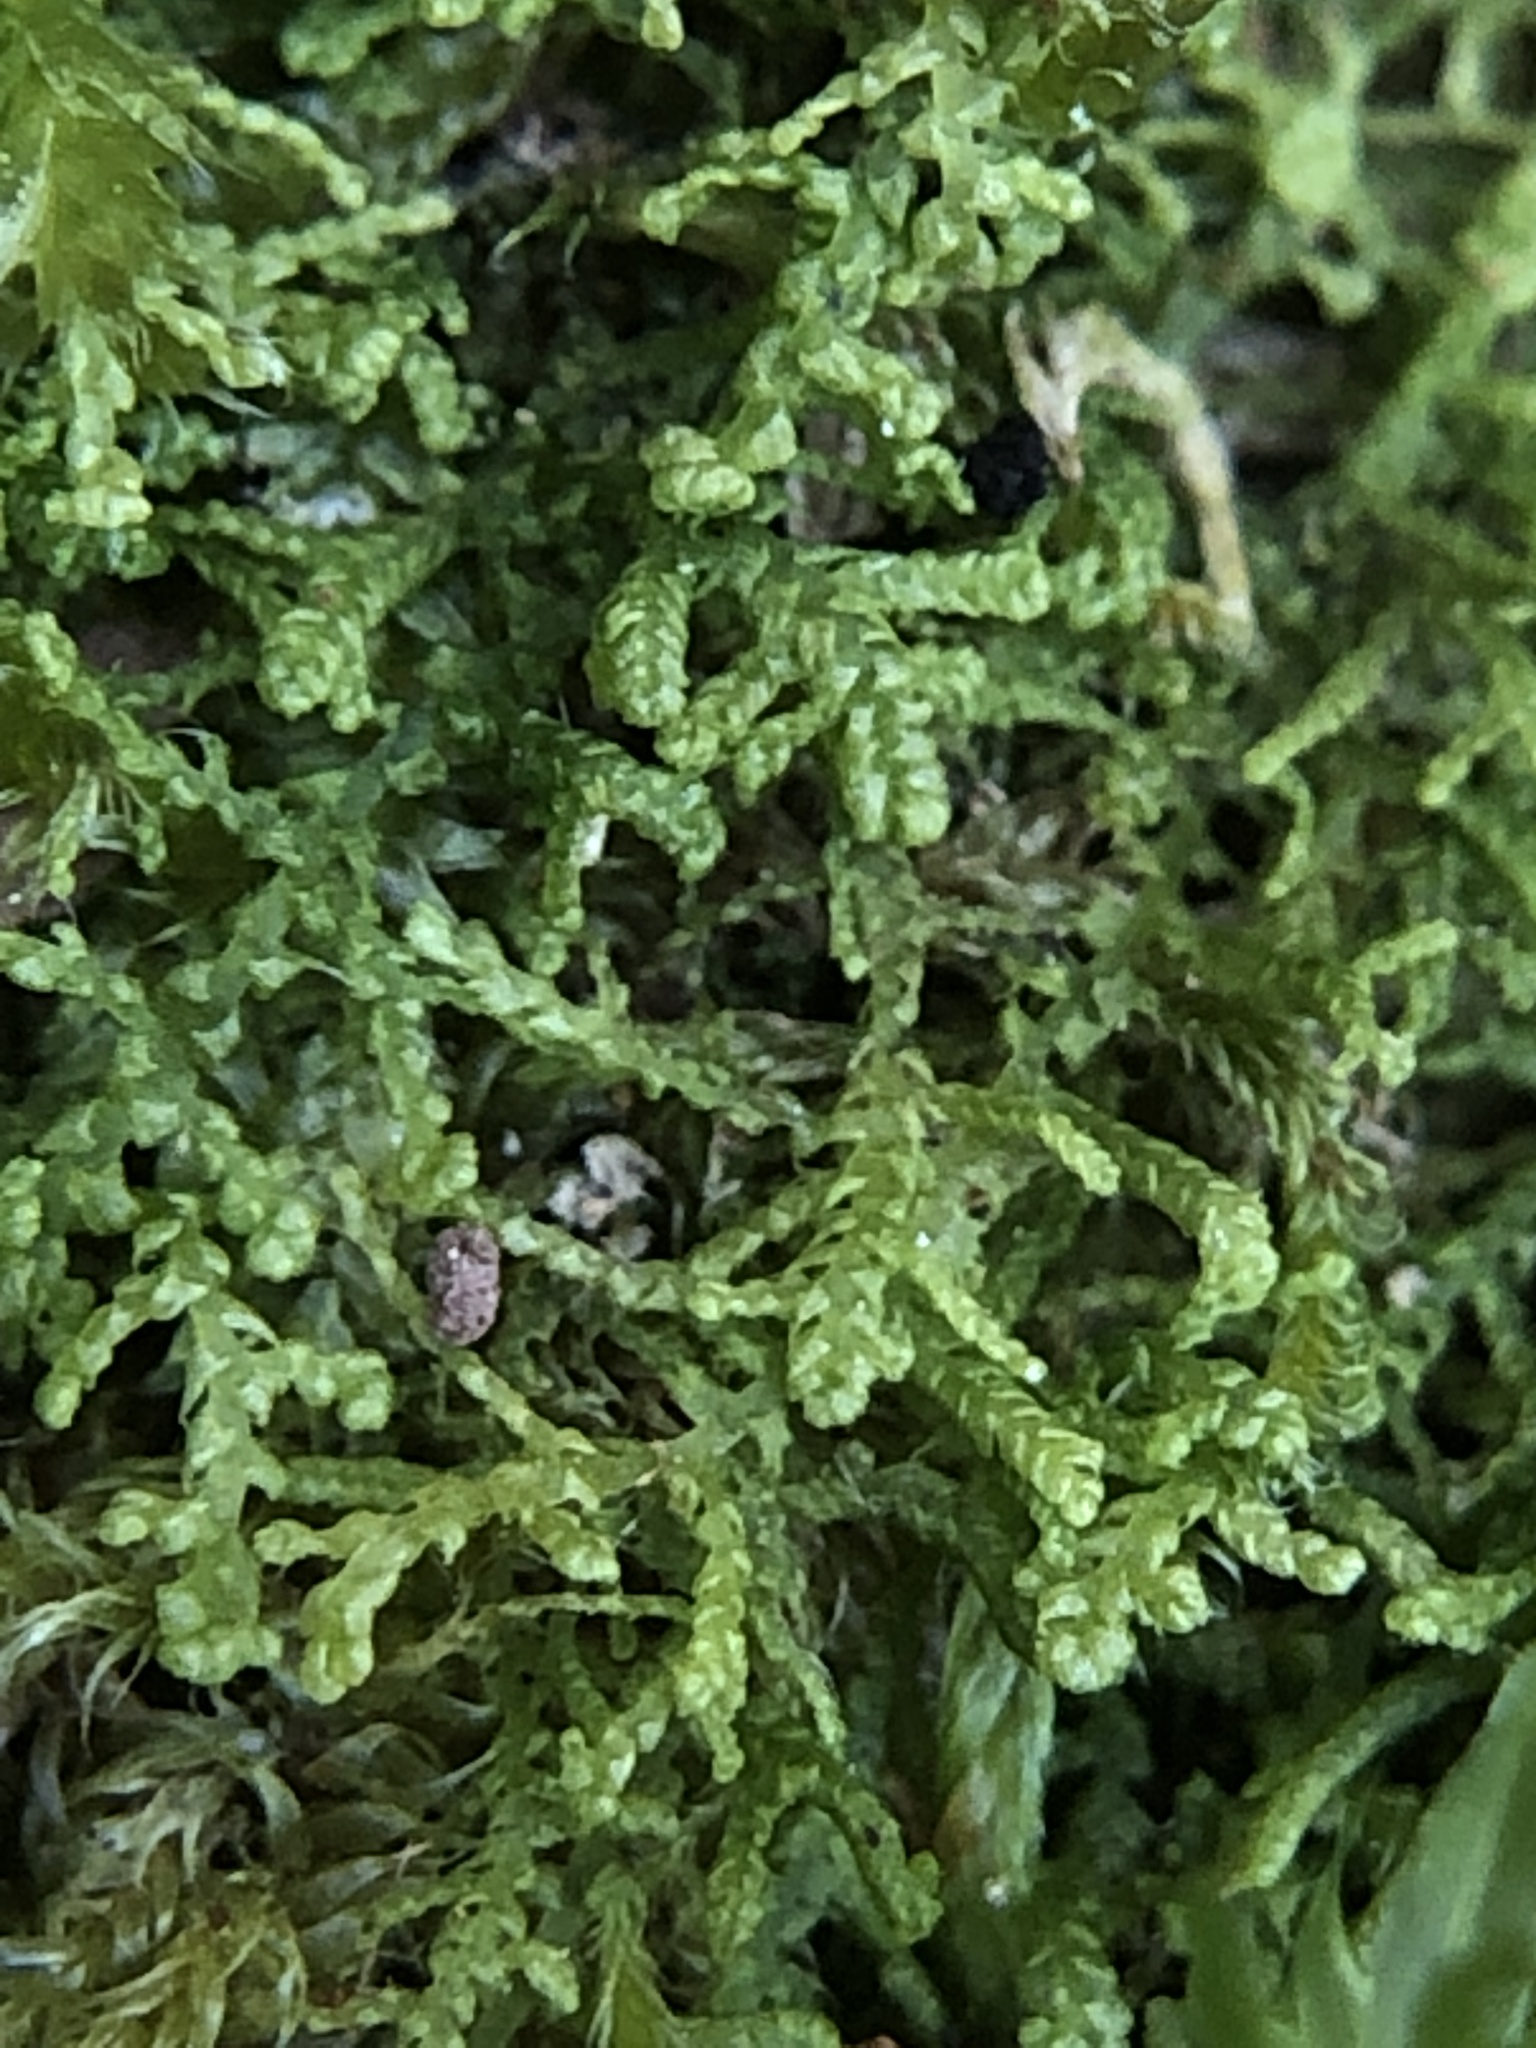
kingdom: Plantae
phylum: Marchantiophyta
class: Jungermanniopsida
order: Jungermanniales
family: Lepidoziaceae
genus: Lepidozia
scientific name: Lepidozia reptans
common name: Creeping fingerwort
